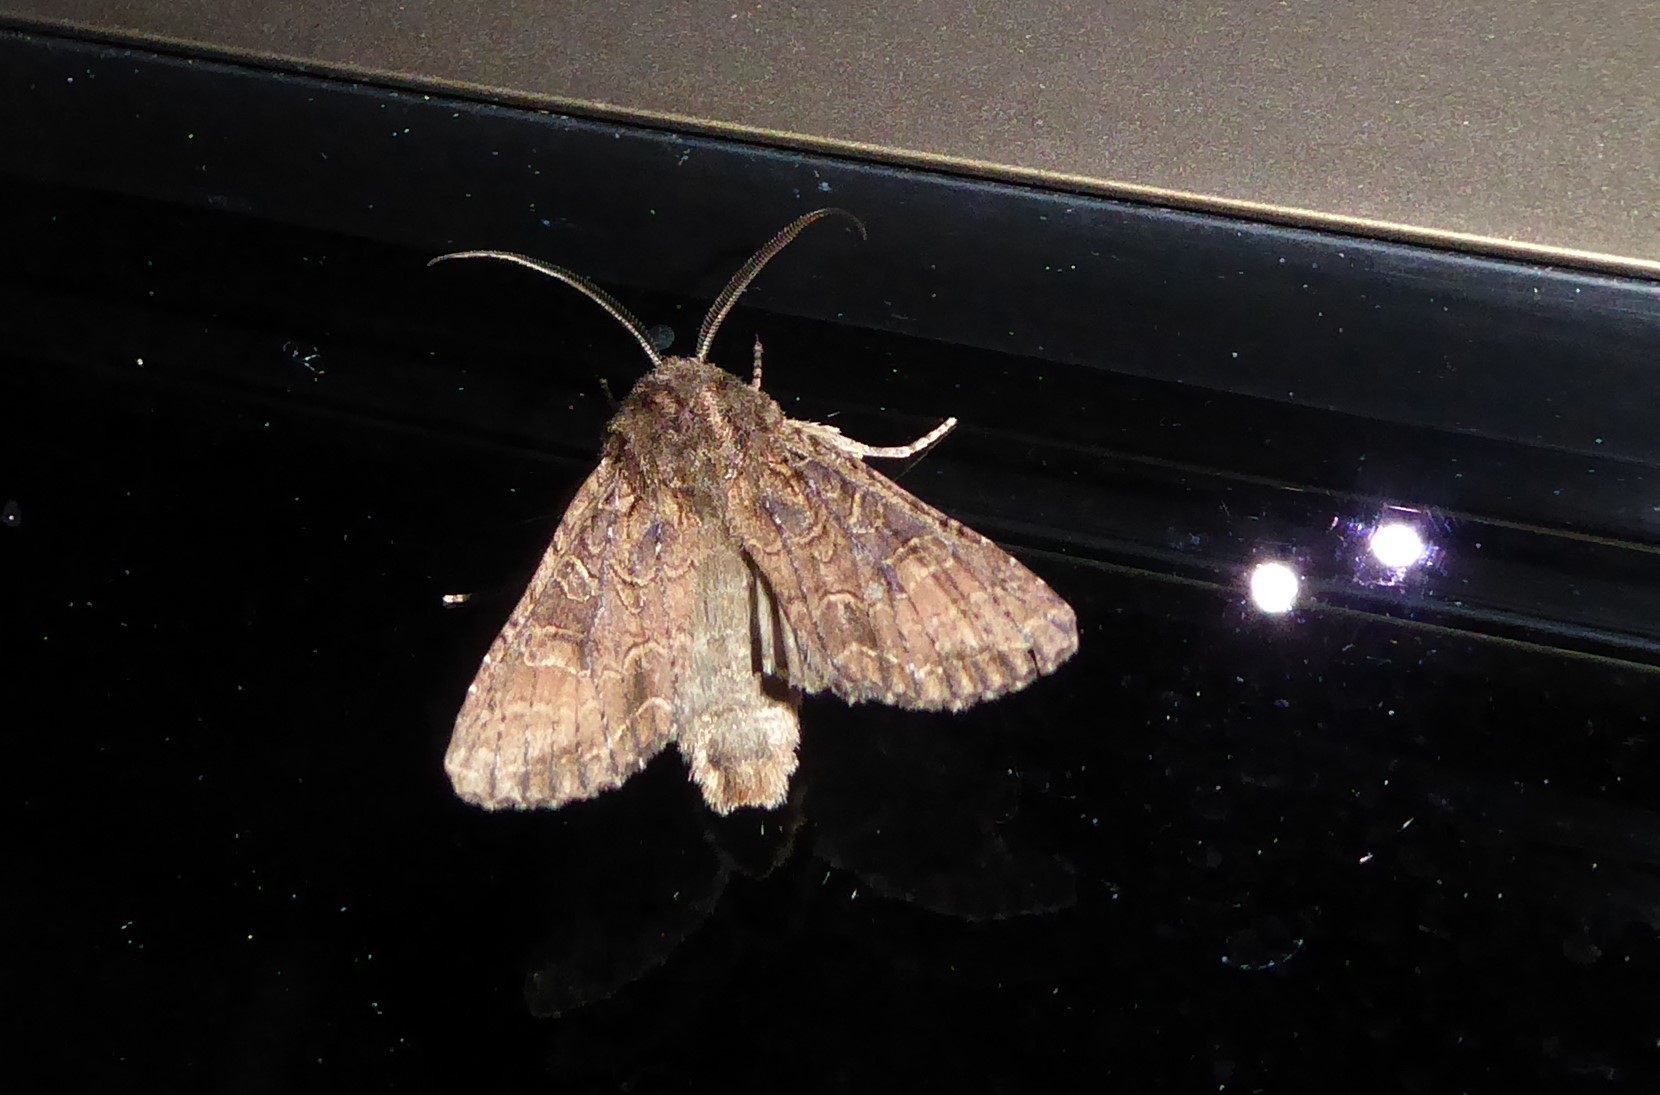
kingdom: Animalia
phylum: Arthropoda
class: Insecta
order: Lepidoptera
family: Noctuidae
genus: Ichneutica
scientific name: Ichneutica mutans
